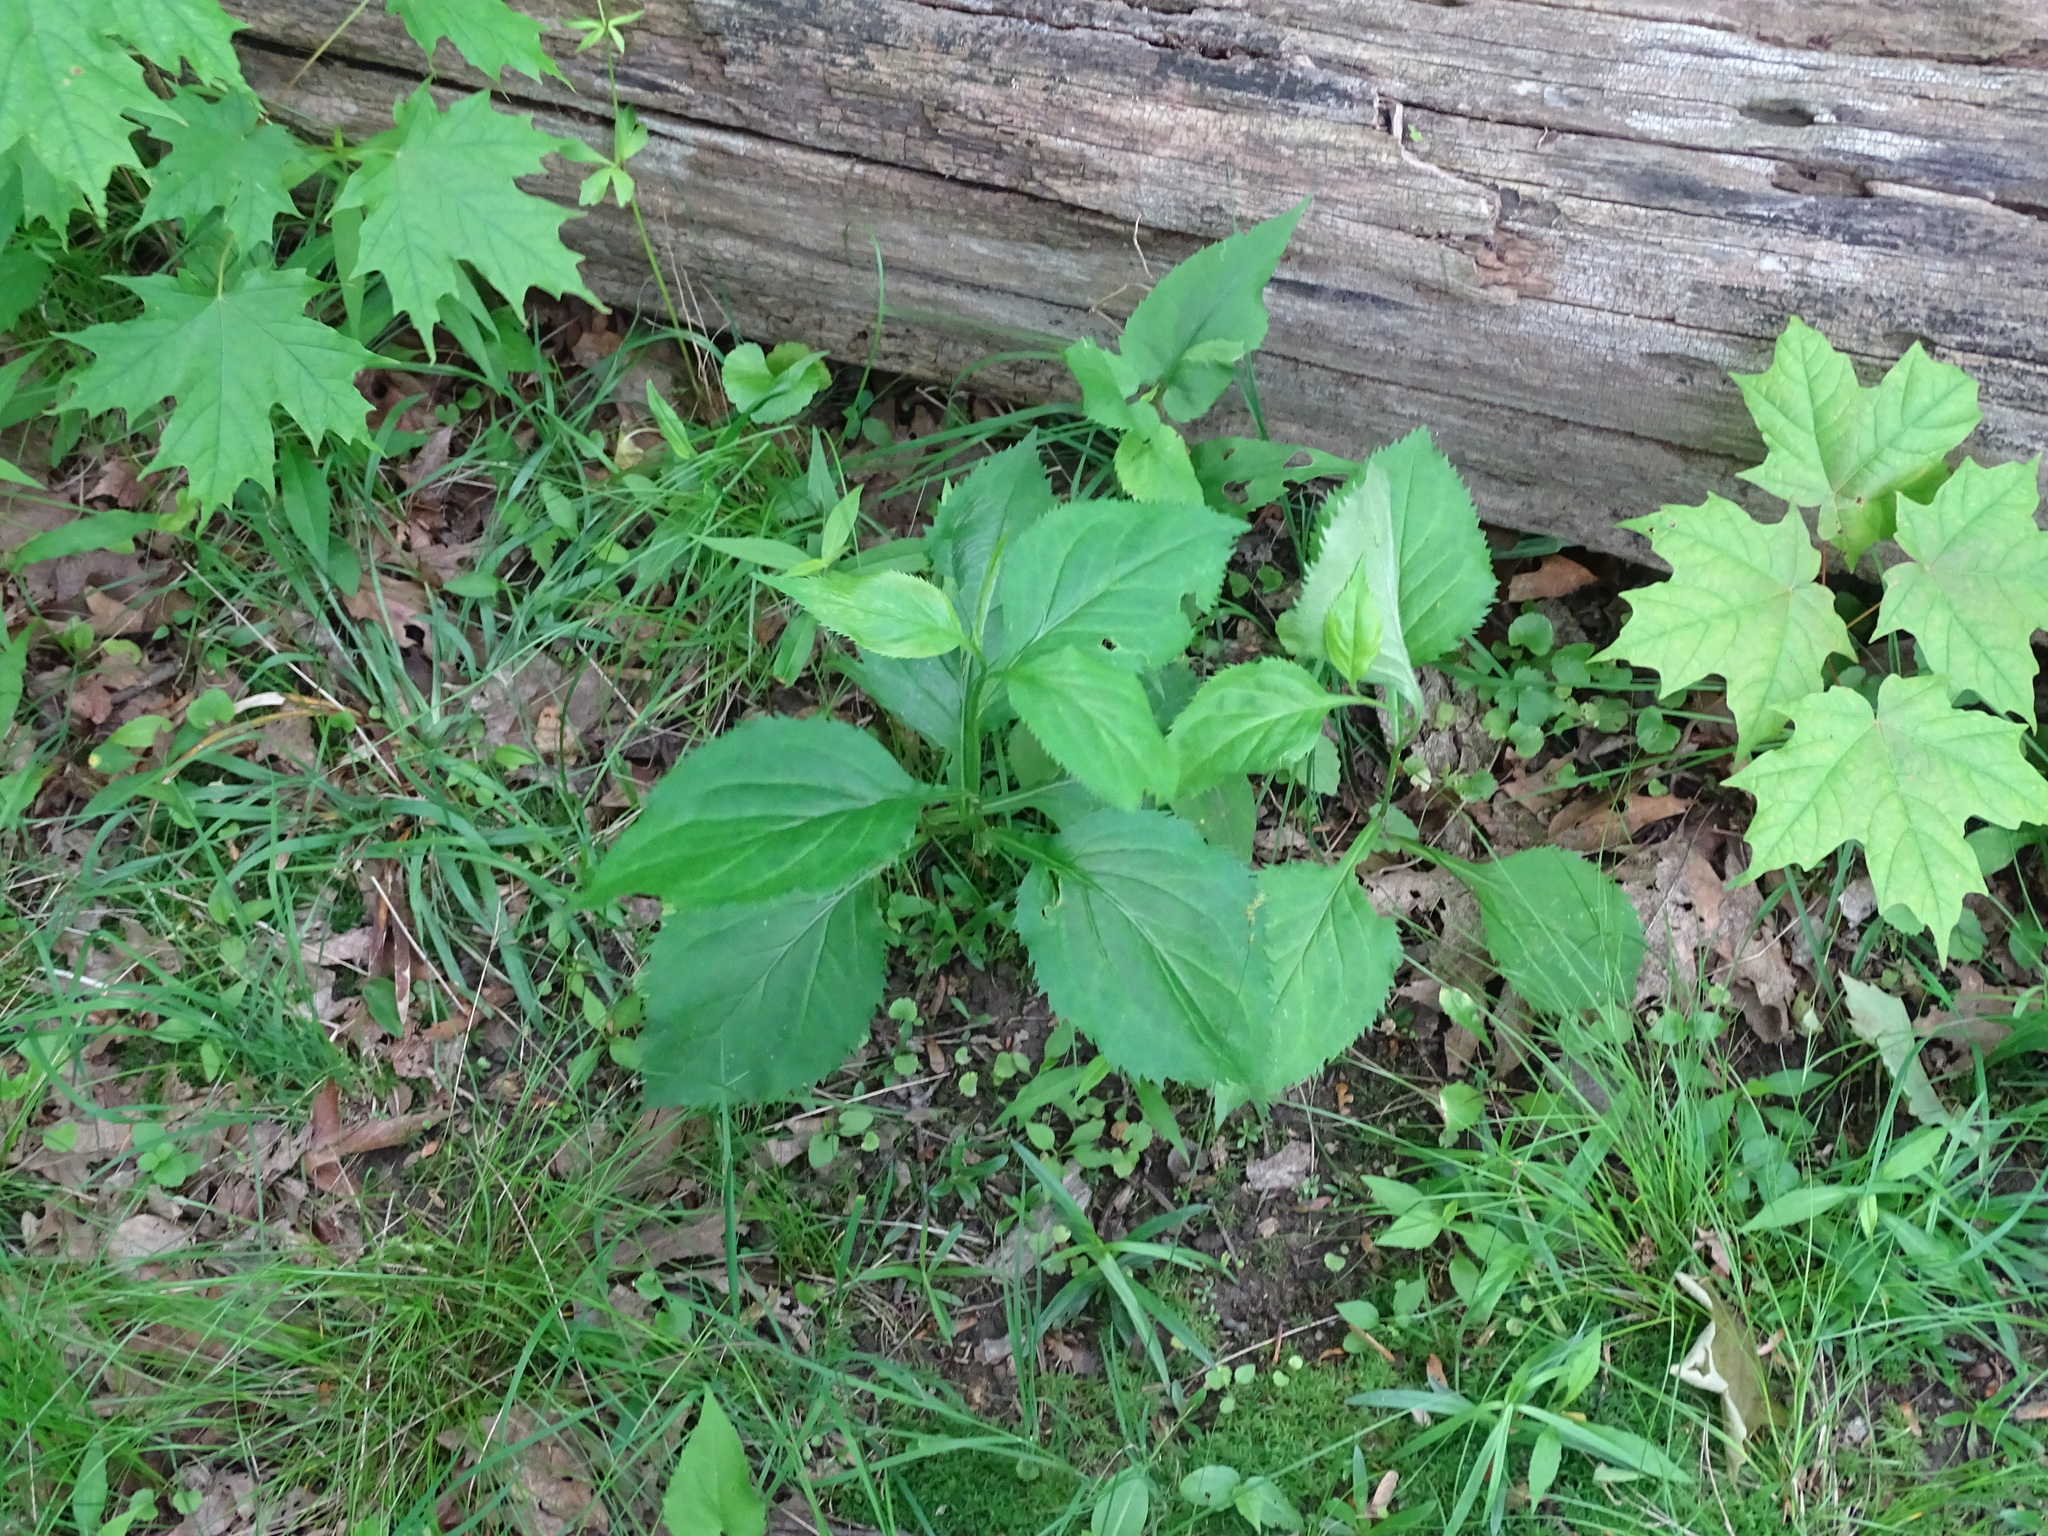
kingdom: Plantae
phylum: Tracheophyta
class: Magnoliopsida
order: Asterales
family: Asteraceae
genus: Solidago
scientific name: Solidago flexicaulis
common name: Zig-zag goldenrod
